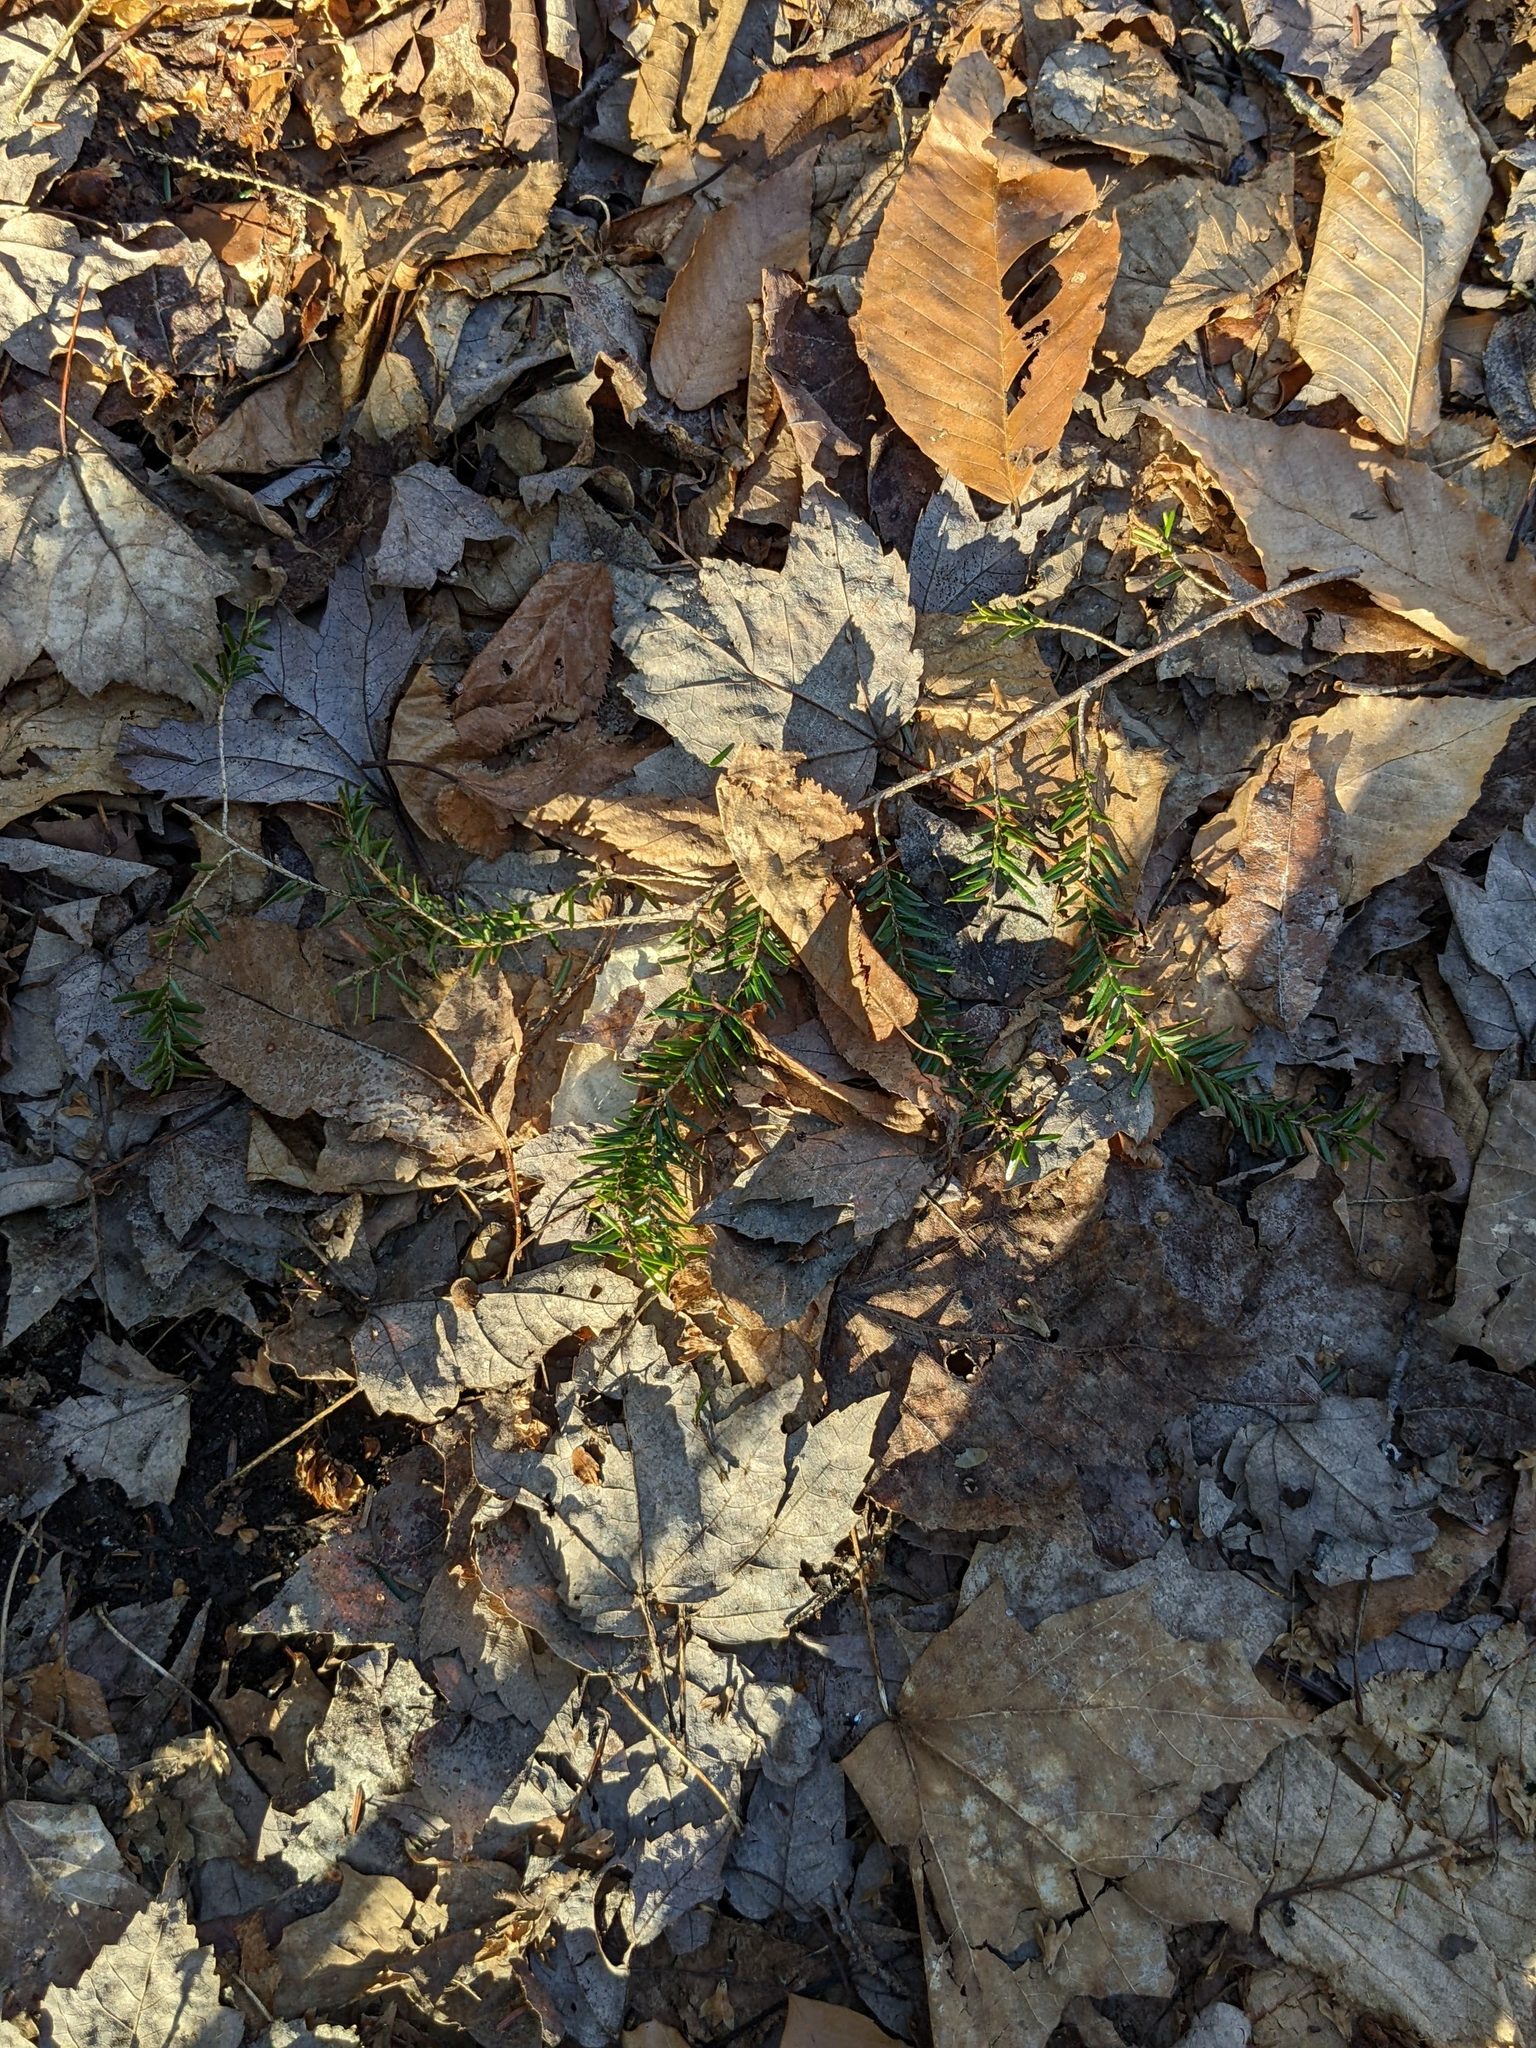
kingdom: Plantae
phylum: Tracheophyta
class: Pinopsida
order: Pinales
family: Pinaceae
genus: Tsuga
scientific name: Tsuga canadensis
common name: Eastern hemlock
